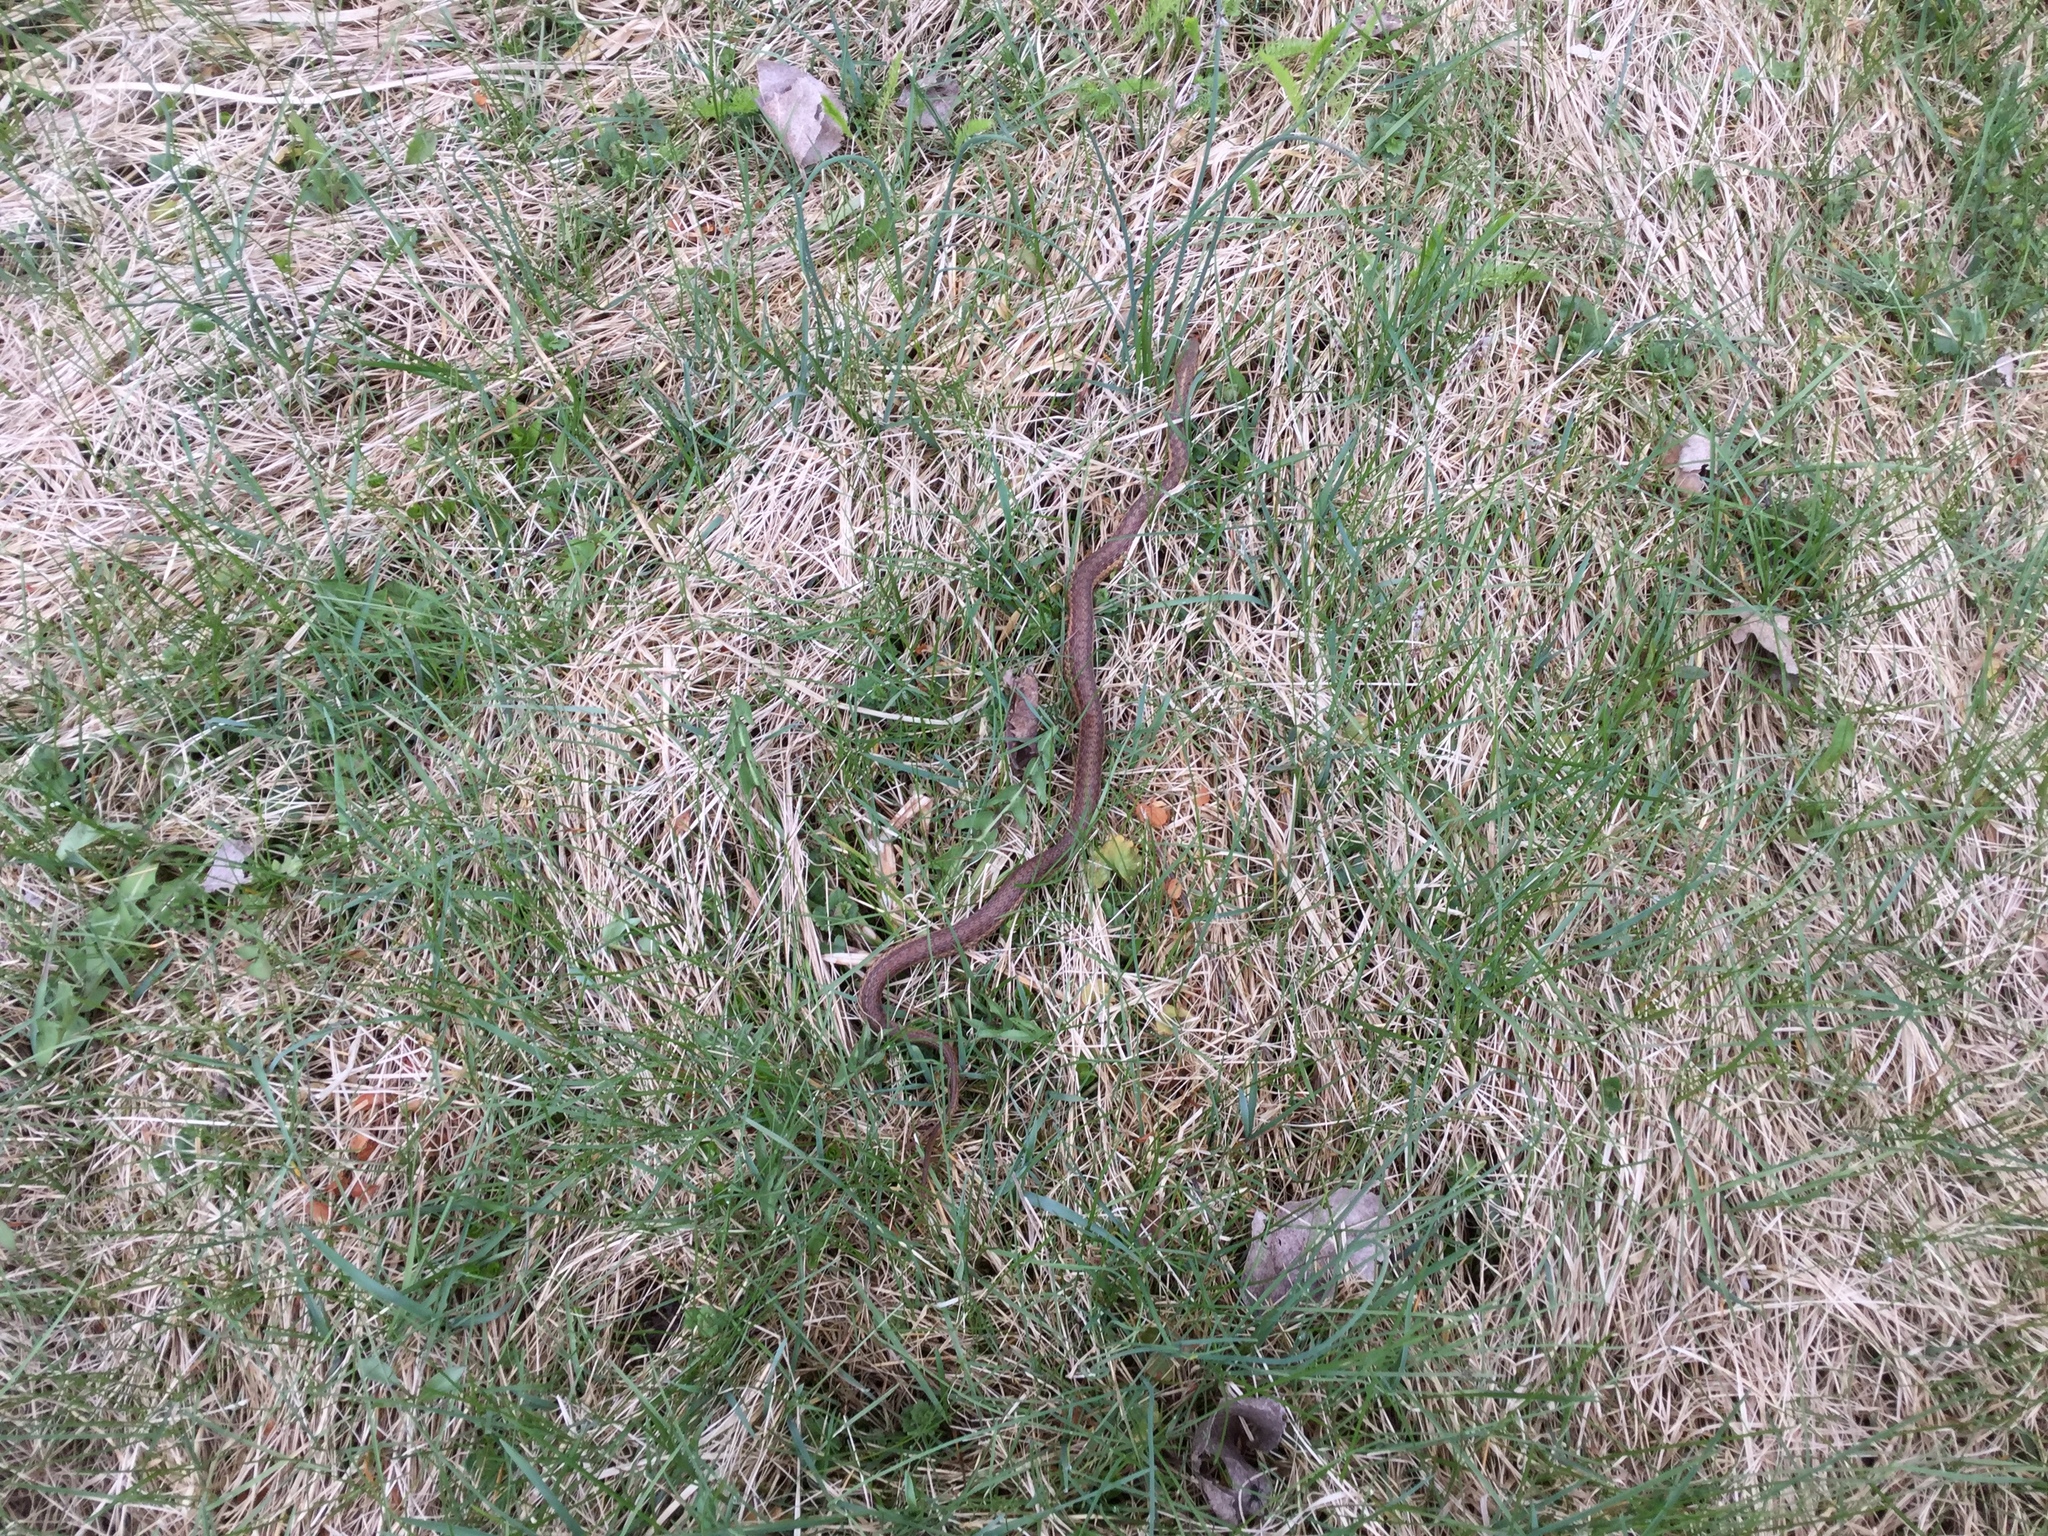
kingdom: Animalia
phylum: Chordata
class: Squamata
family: Colubridae
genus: Thamnophis
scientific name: Thamnophis sirtalis
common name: Common garter snake
